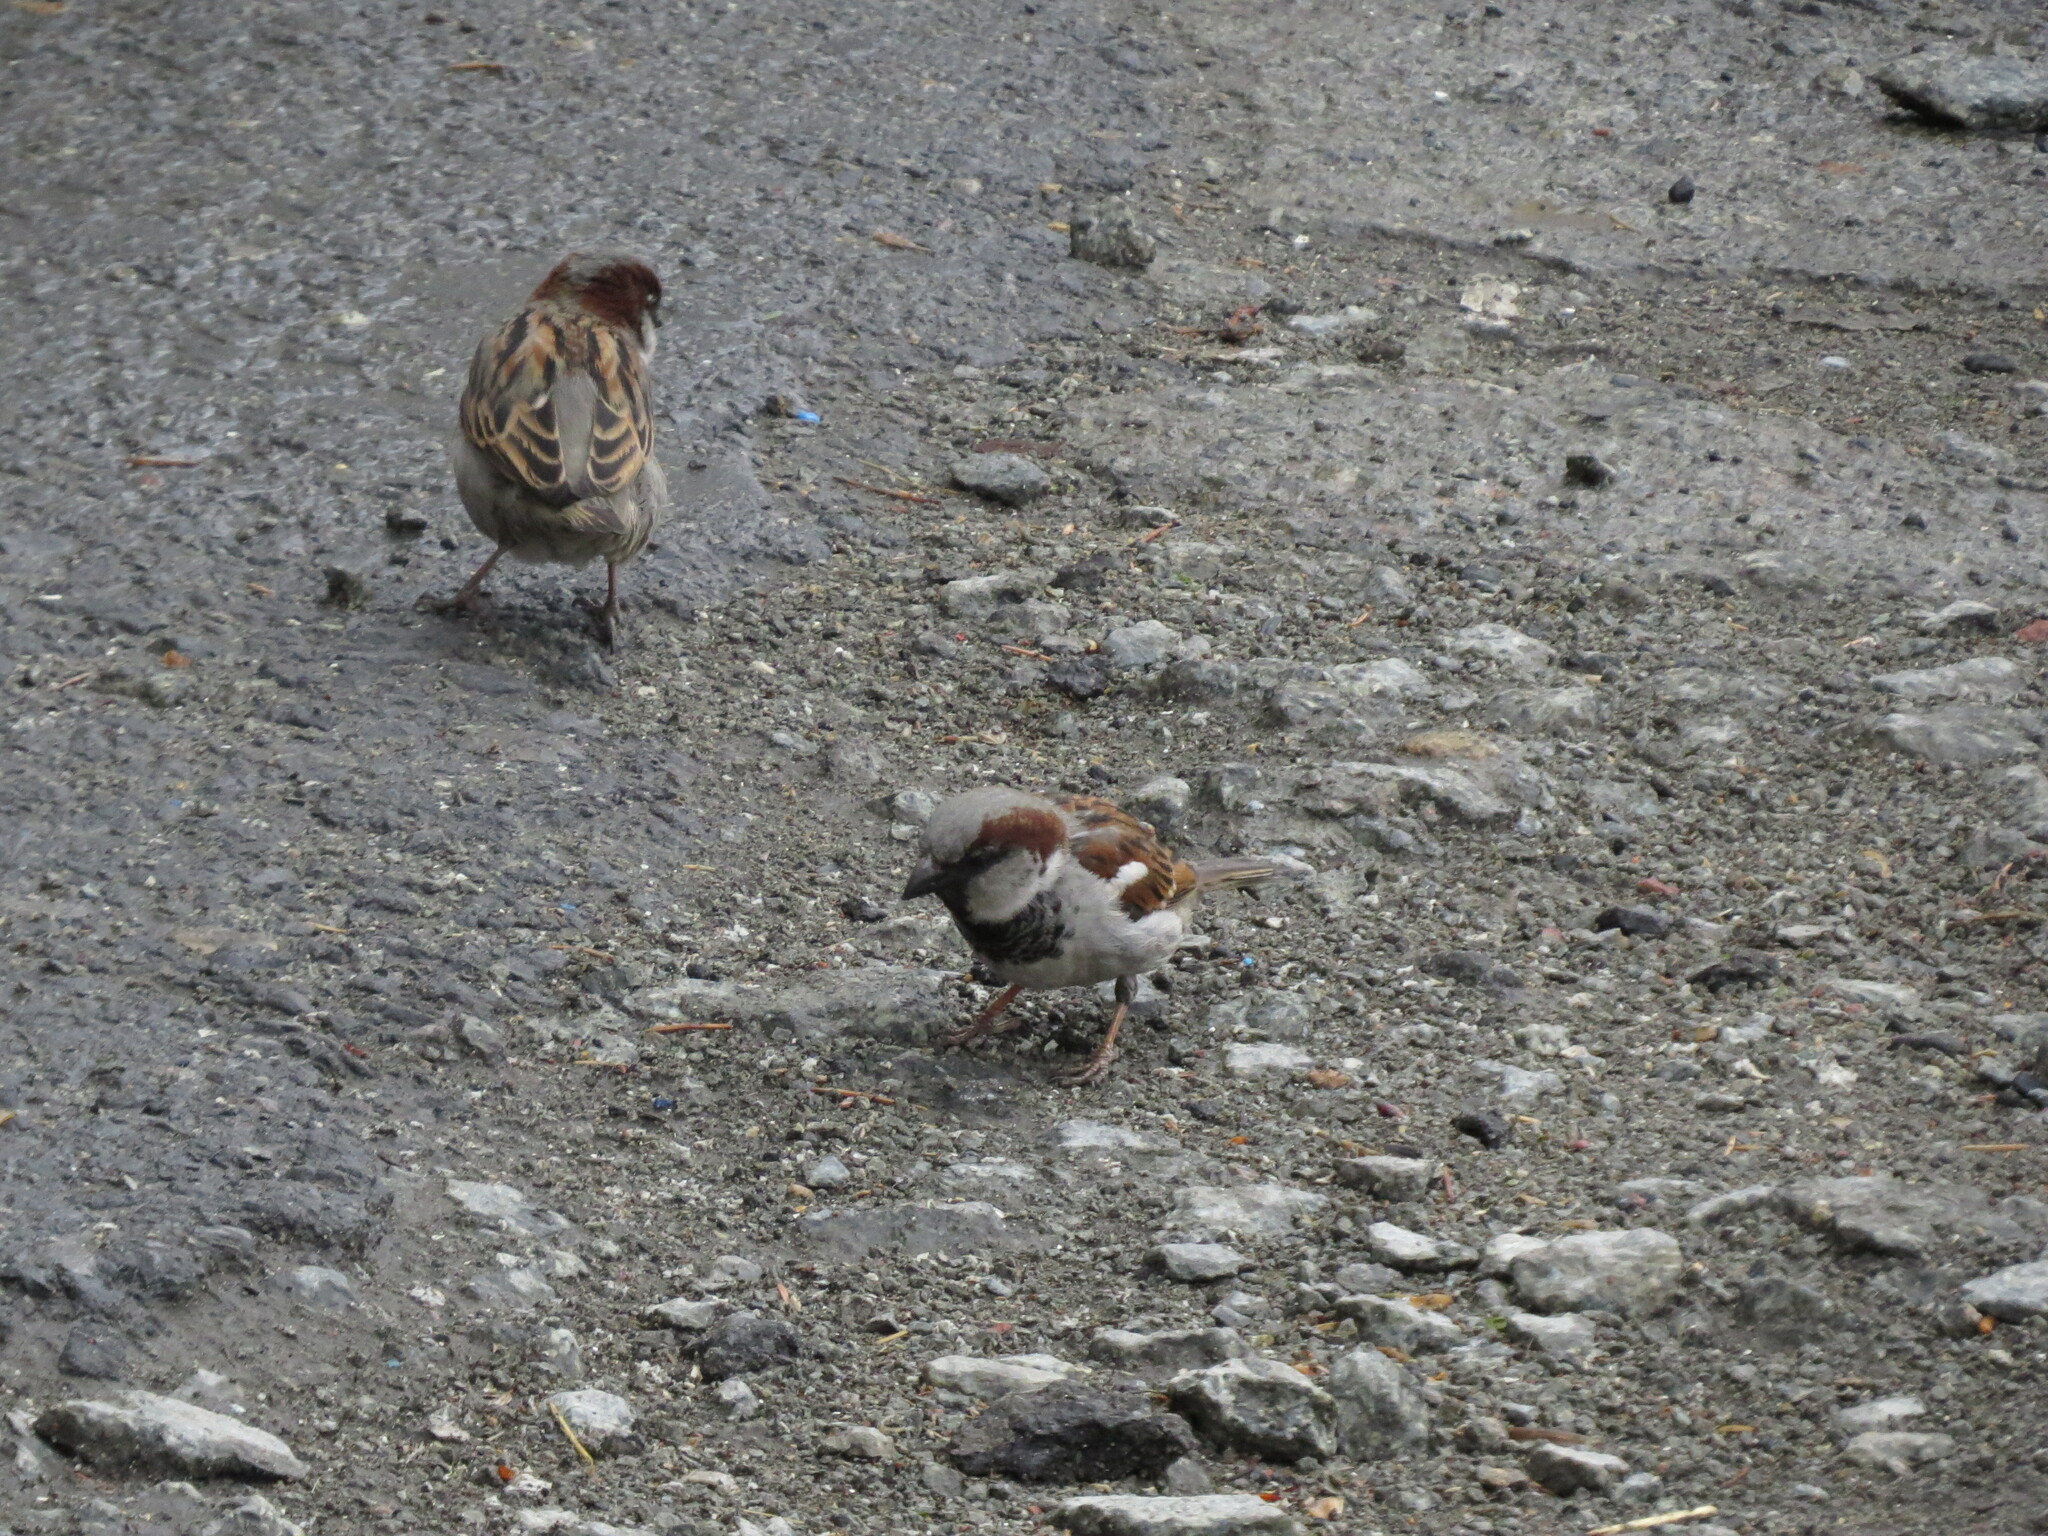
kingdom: Animalia
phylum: Chordata
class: Aves
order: Passeriformes
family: Passeridae
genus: Passer
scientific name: Passer domesticus
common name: House sparrow
